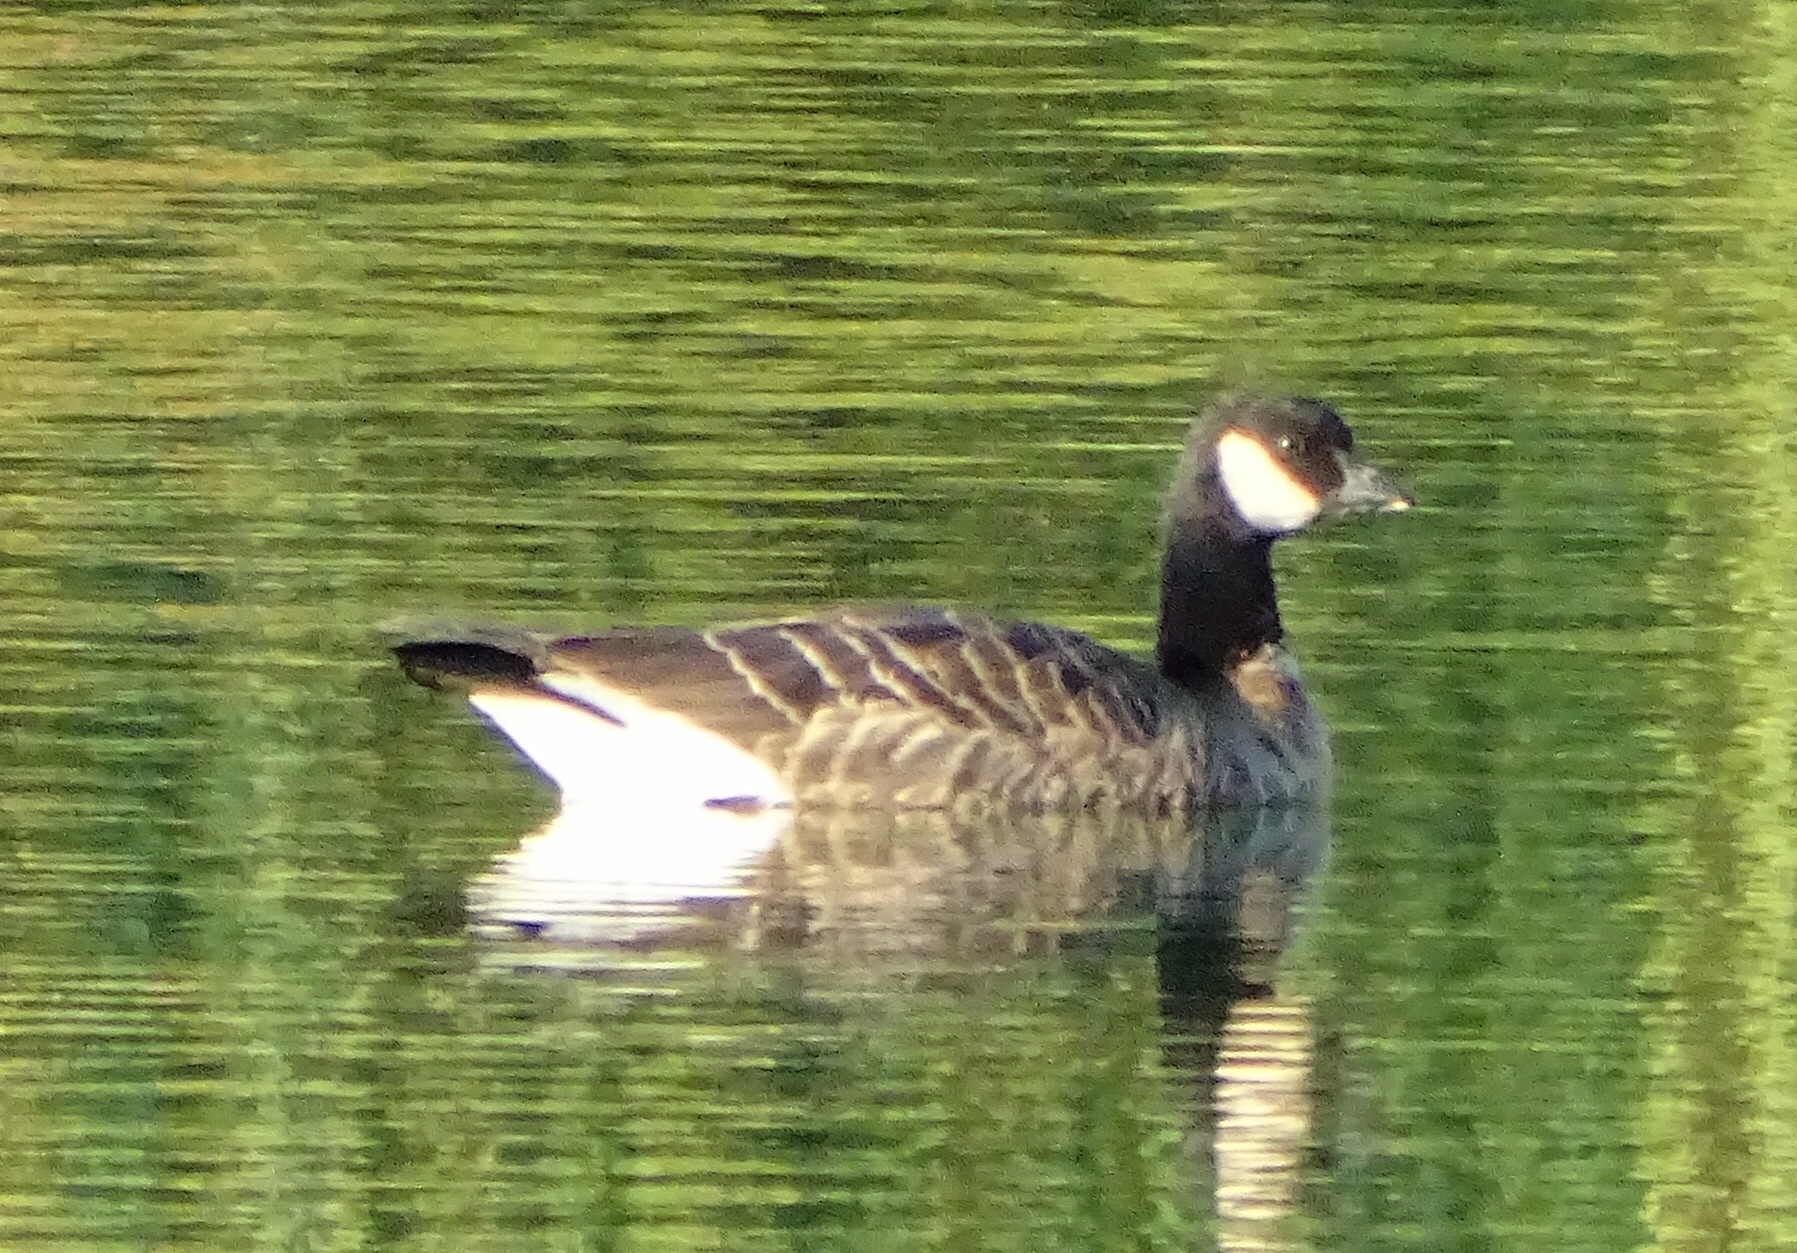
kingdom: Animalia
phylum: Chordata
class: Aves
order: Anseriformes
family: Anatidae
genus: Branta
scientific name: Branta hutchinsii
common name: Cackling goose
